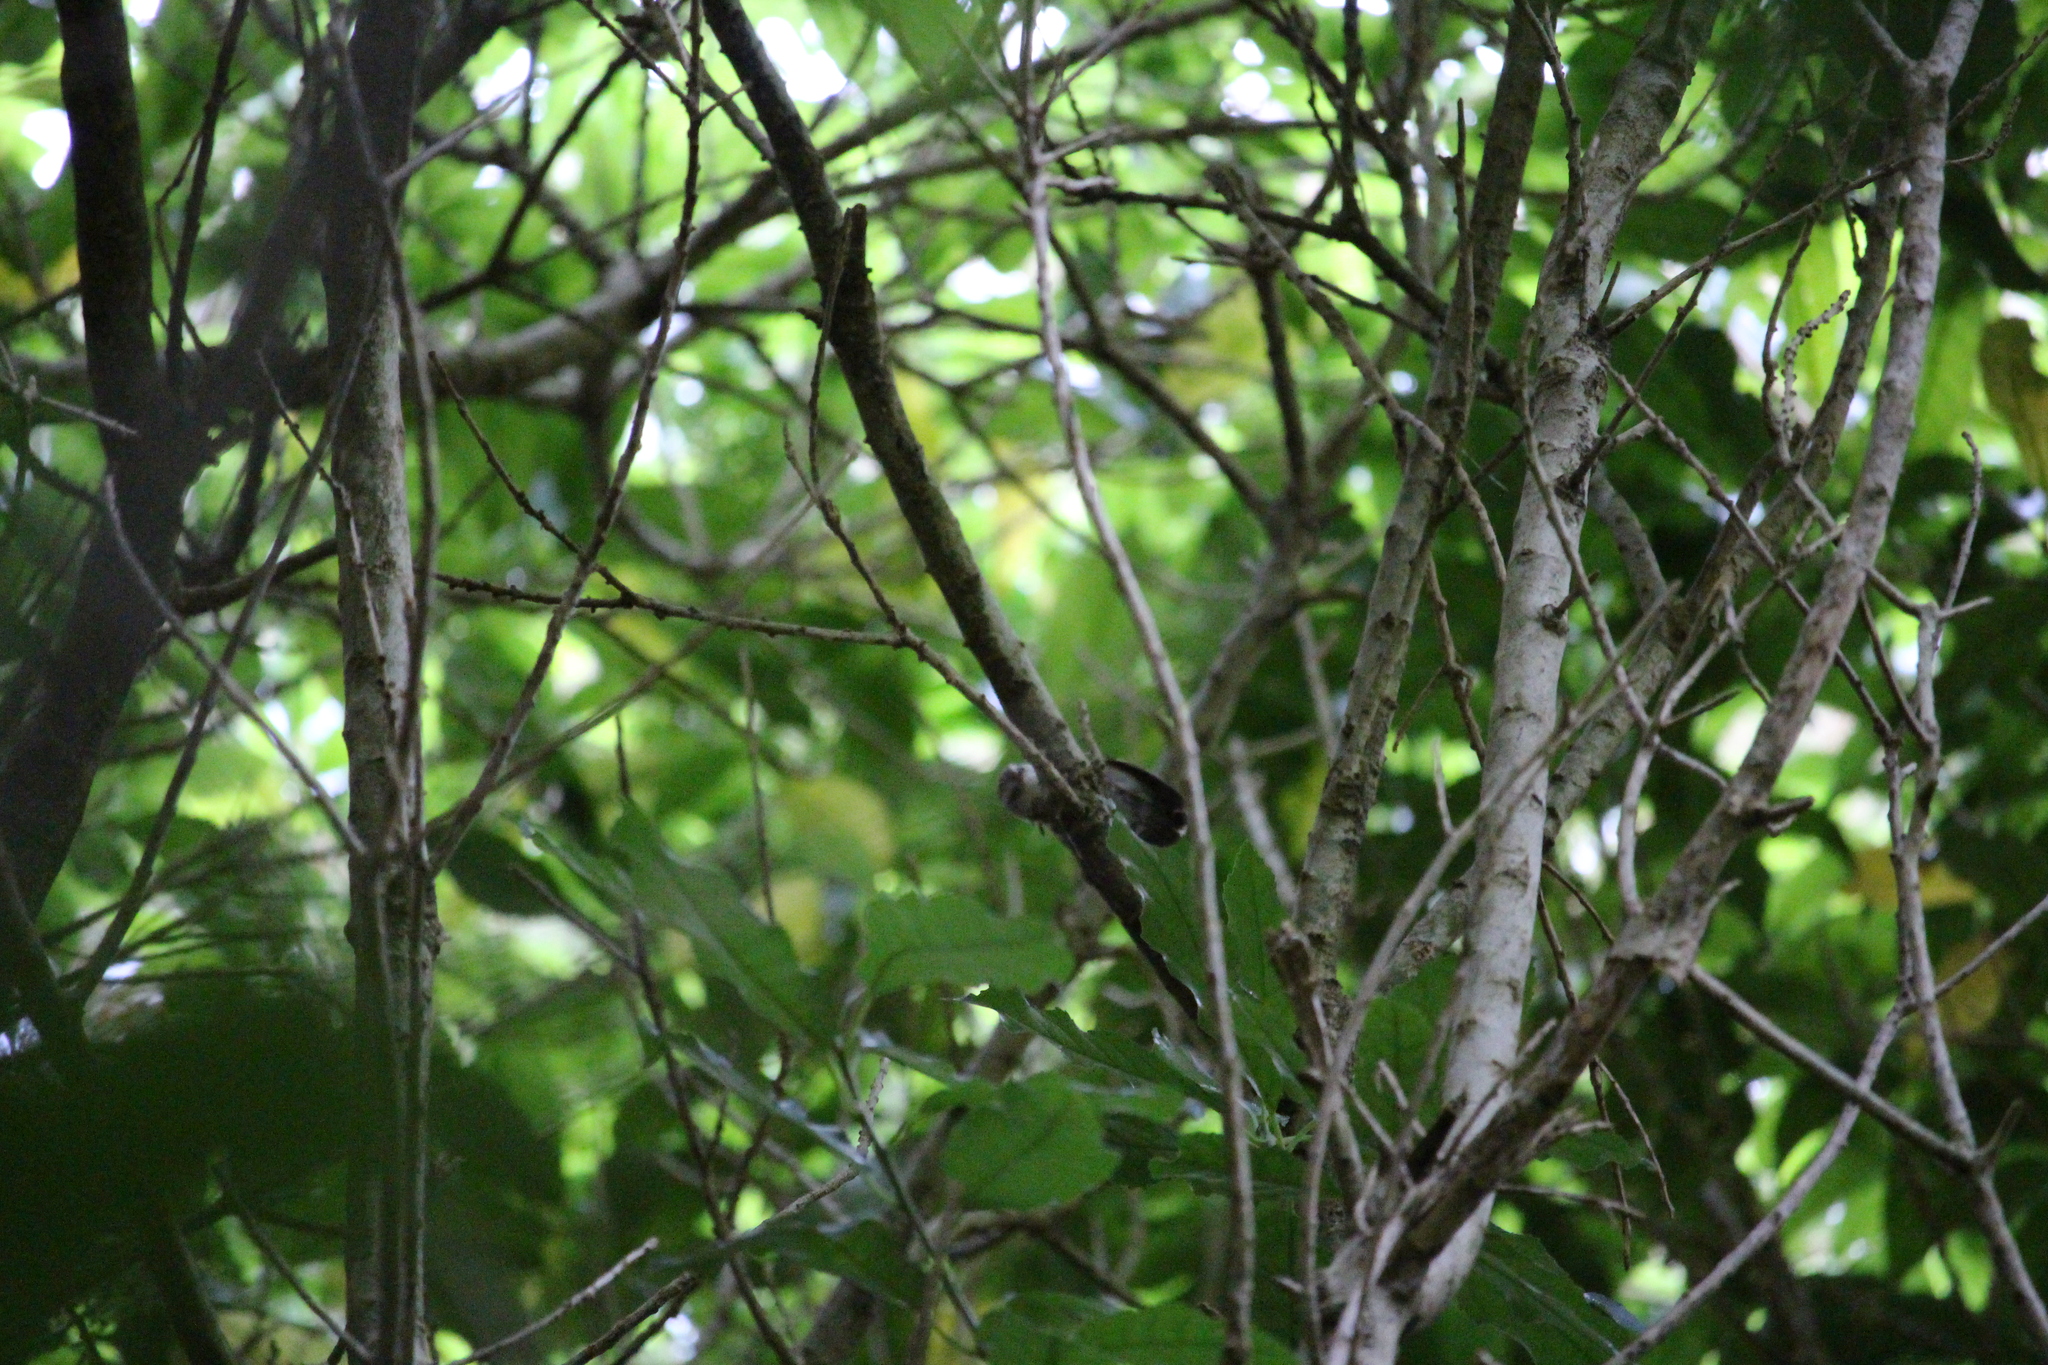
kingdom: Animalia
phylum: Chordata
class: Aves
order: Passeriformes
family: Acanthisittidae
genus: Acanthisitta
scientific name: Acanthisitta chloris
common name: Rifleman
